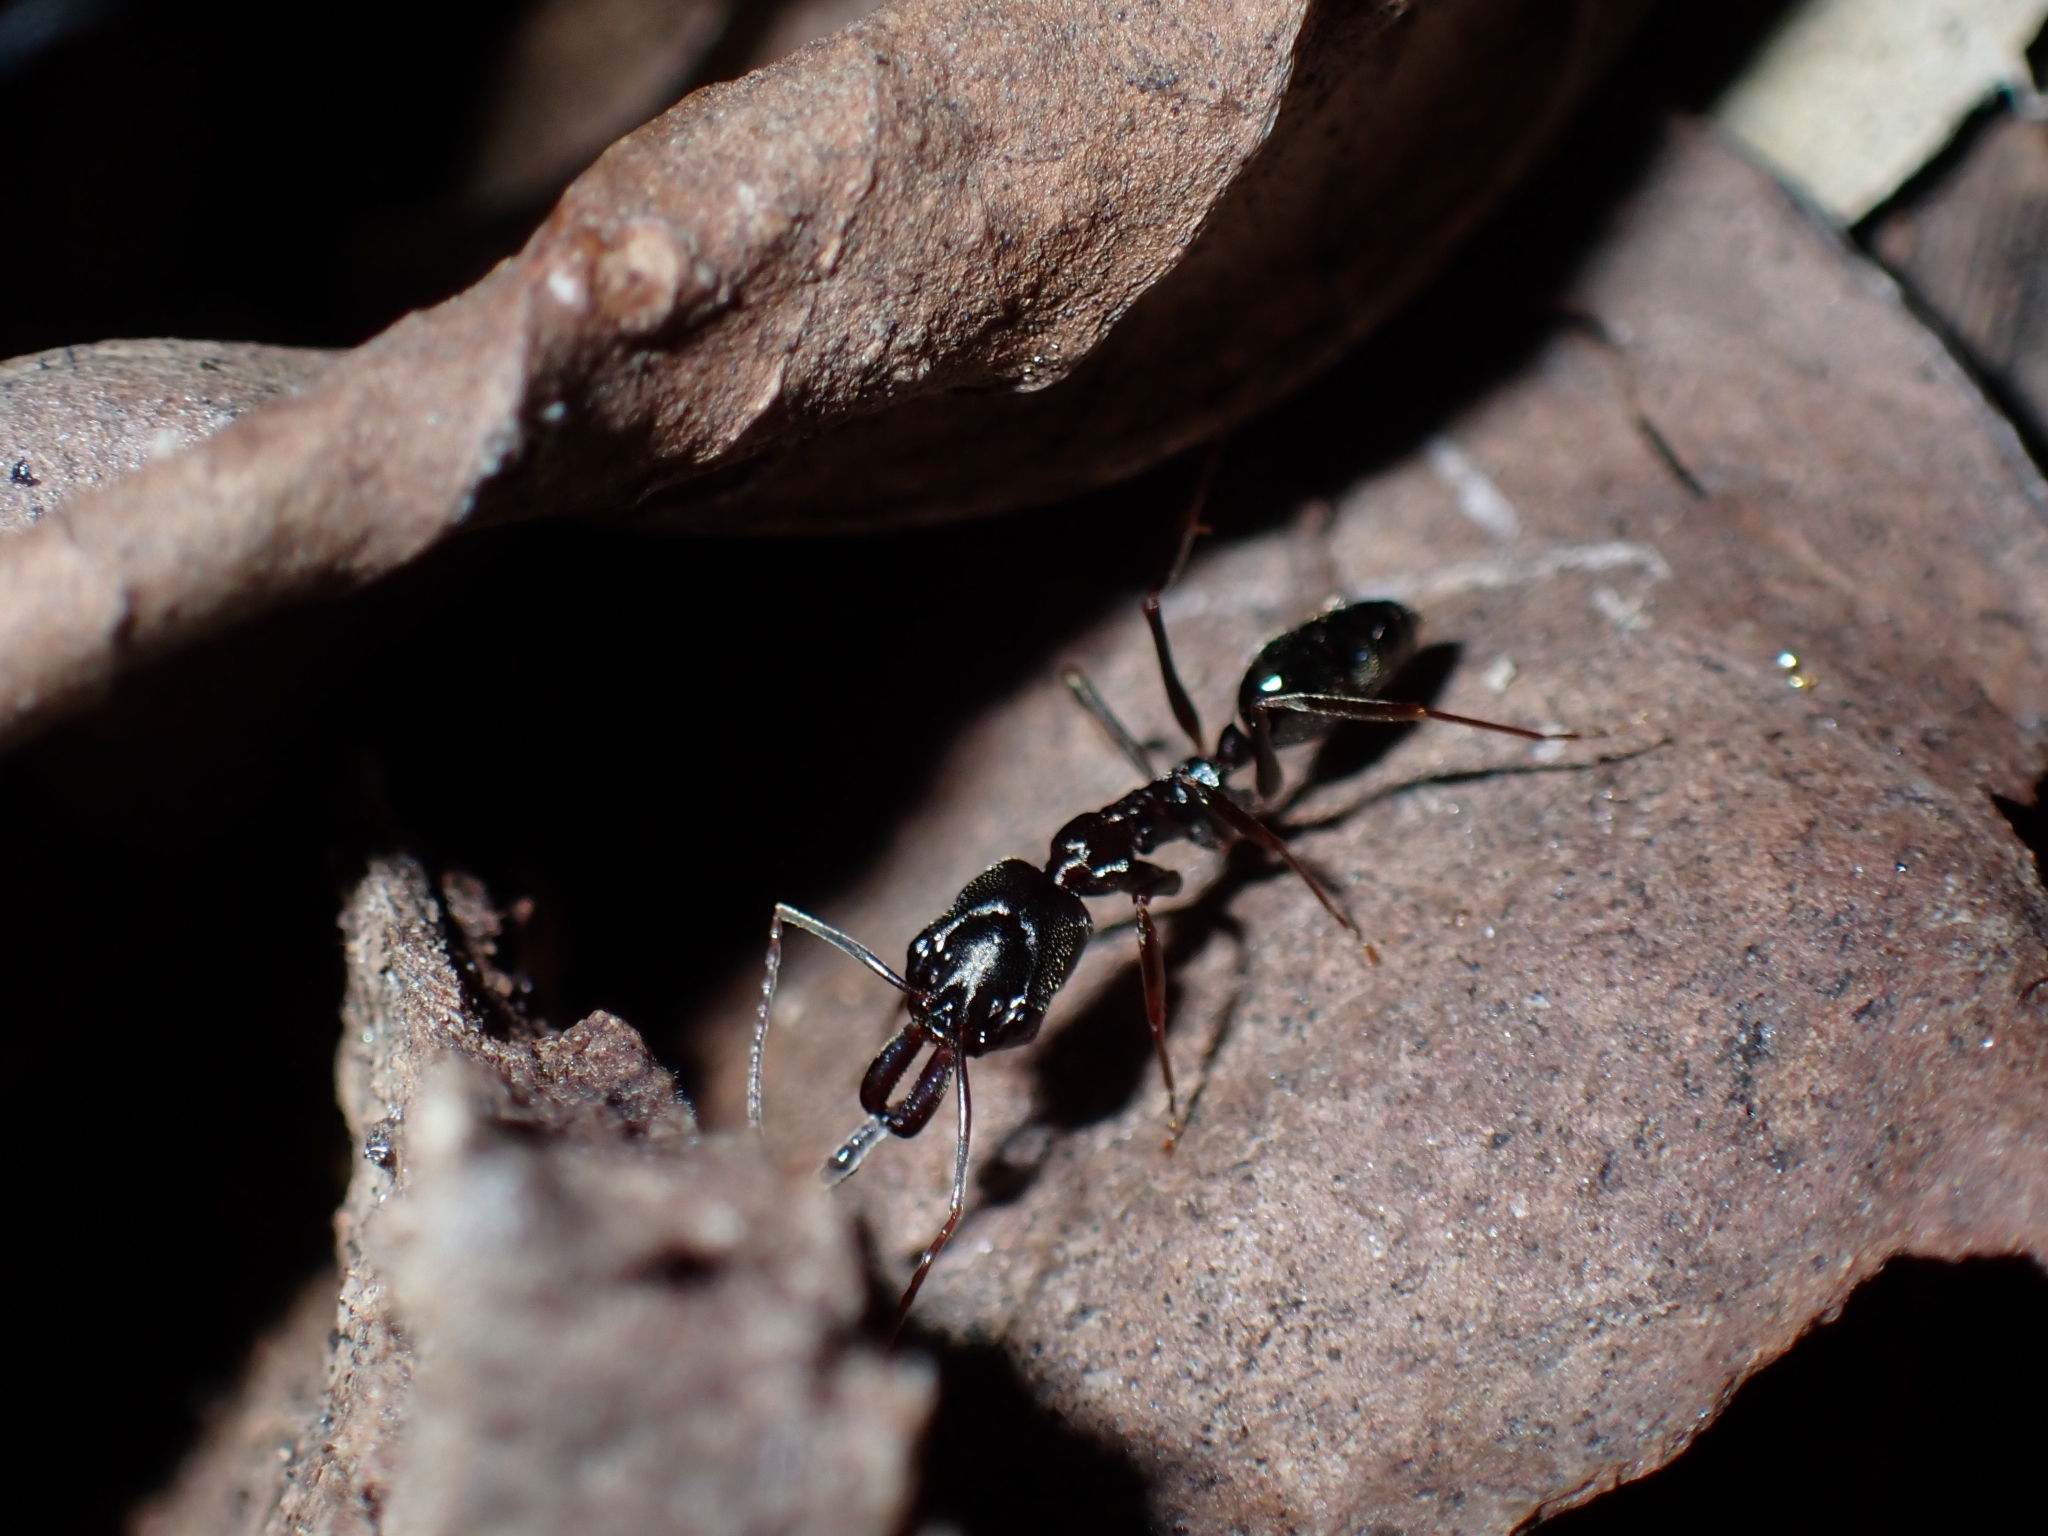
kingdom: Animalia
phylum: Arthropoda
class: Insecta
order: Hymenoptera
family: Formicidae
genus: Odontomachus
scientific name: Odontomachus simillimus
